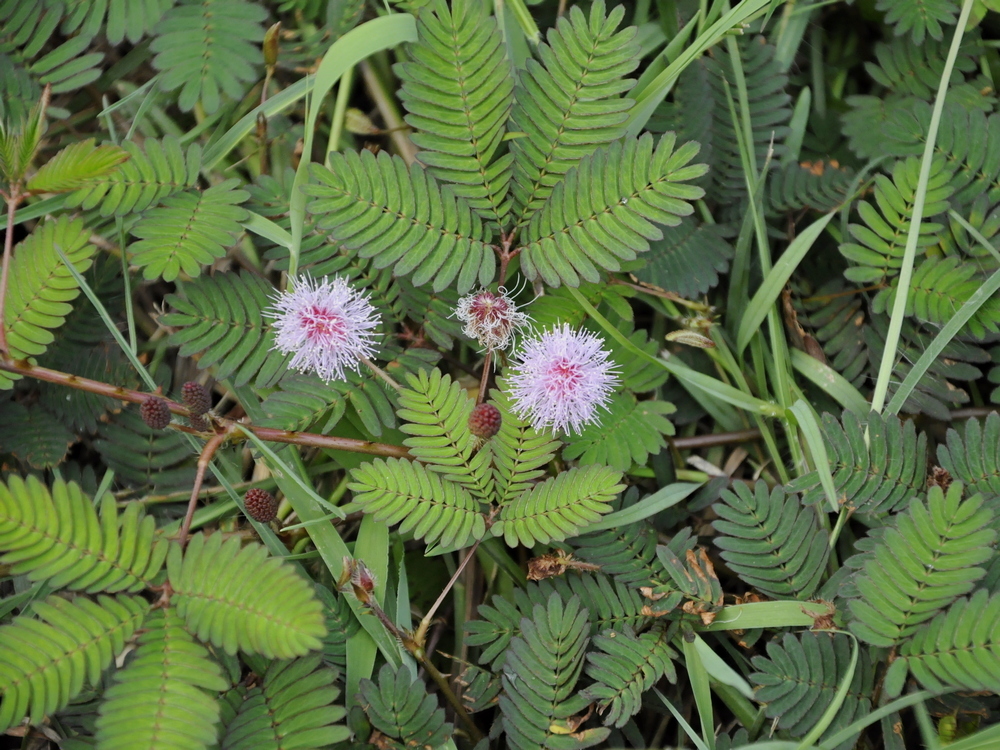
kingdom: Plantae
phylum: Tracheophyta
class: Magnoliopsida
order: Fabales
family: Fabaceae
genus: Mimosa
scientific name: Mimosa pudica
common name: Sensitive plant
